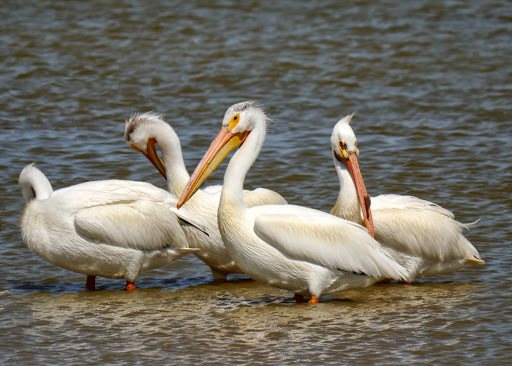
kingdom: Animalia
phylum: Chordata
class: Aves
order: Pelecaniformes
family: Pelecanidae
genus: Pelecanus
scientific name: Pelecanus erythrorhynchos
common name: American white pelican
